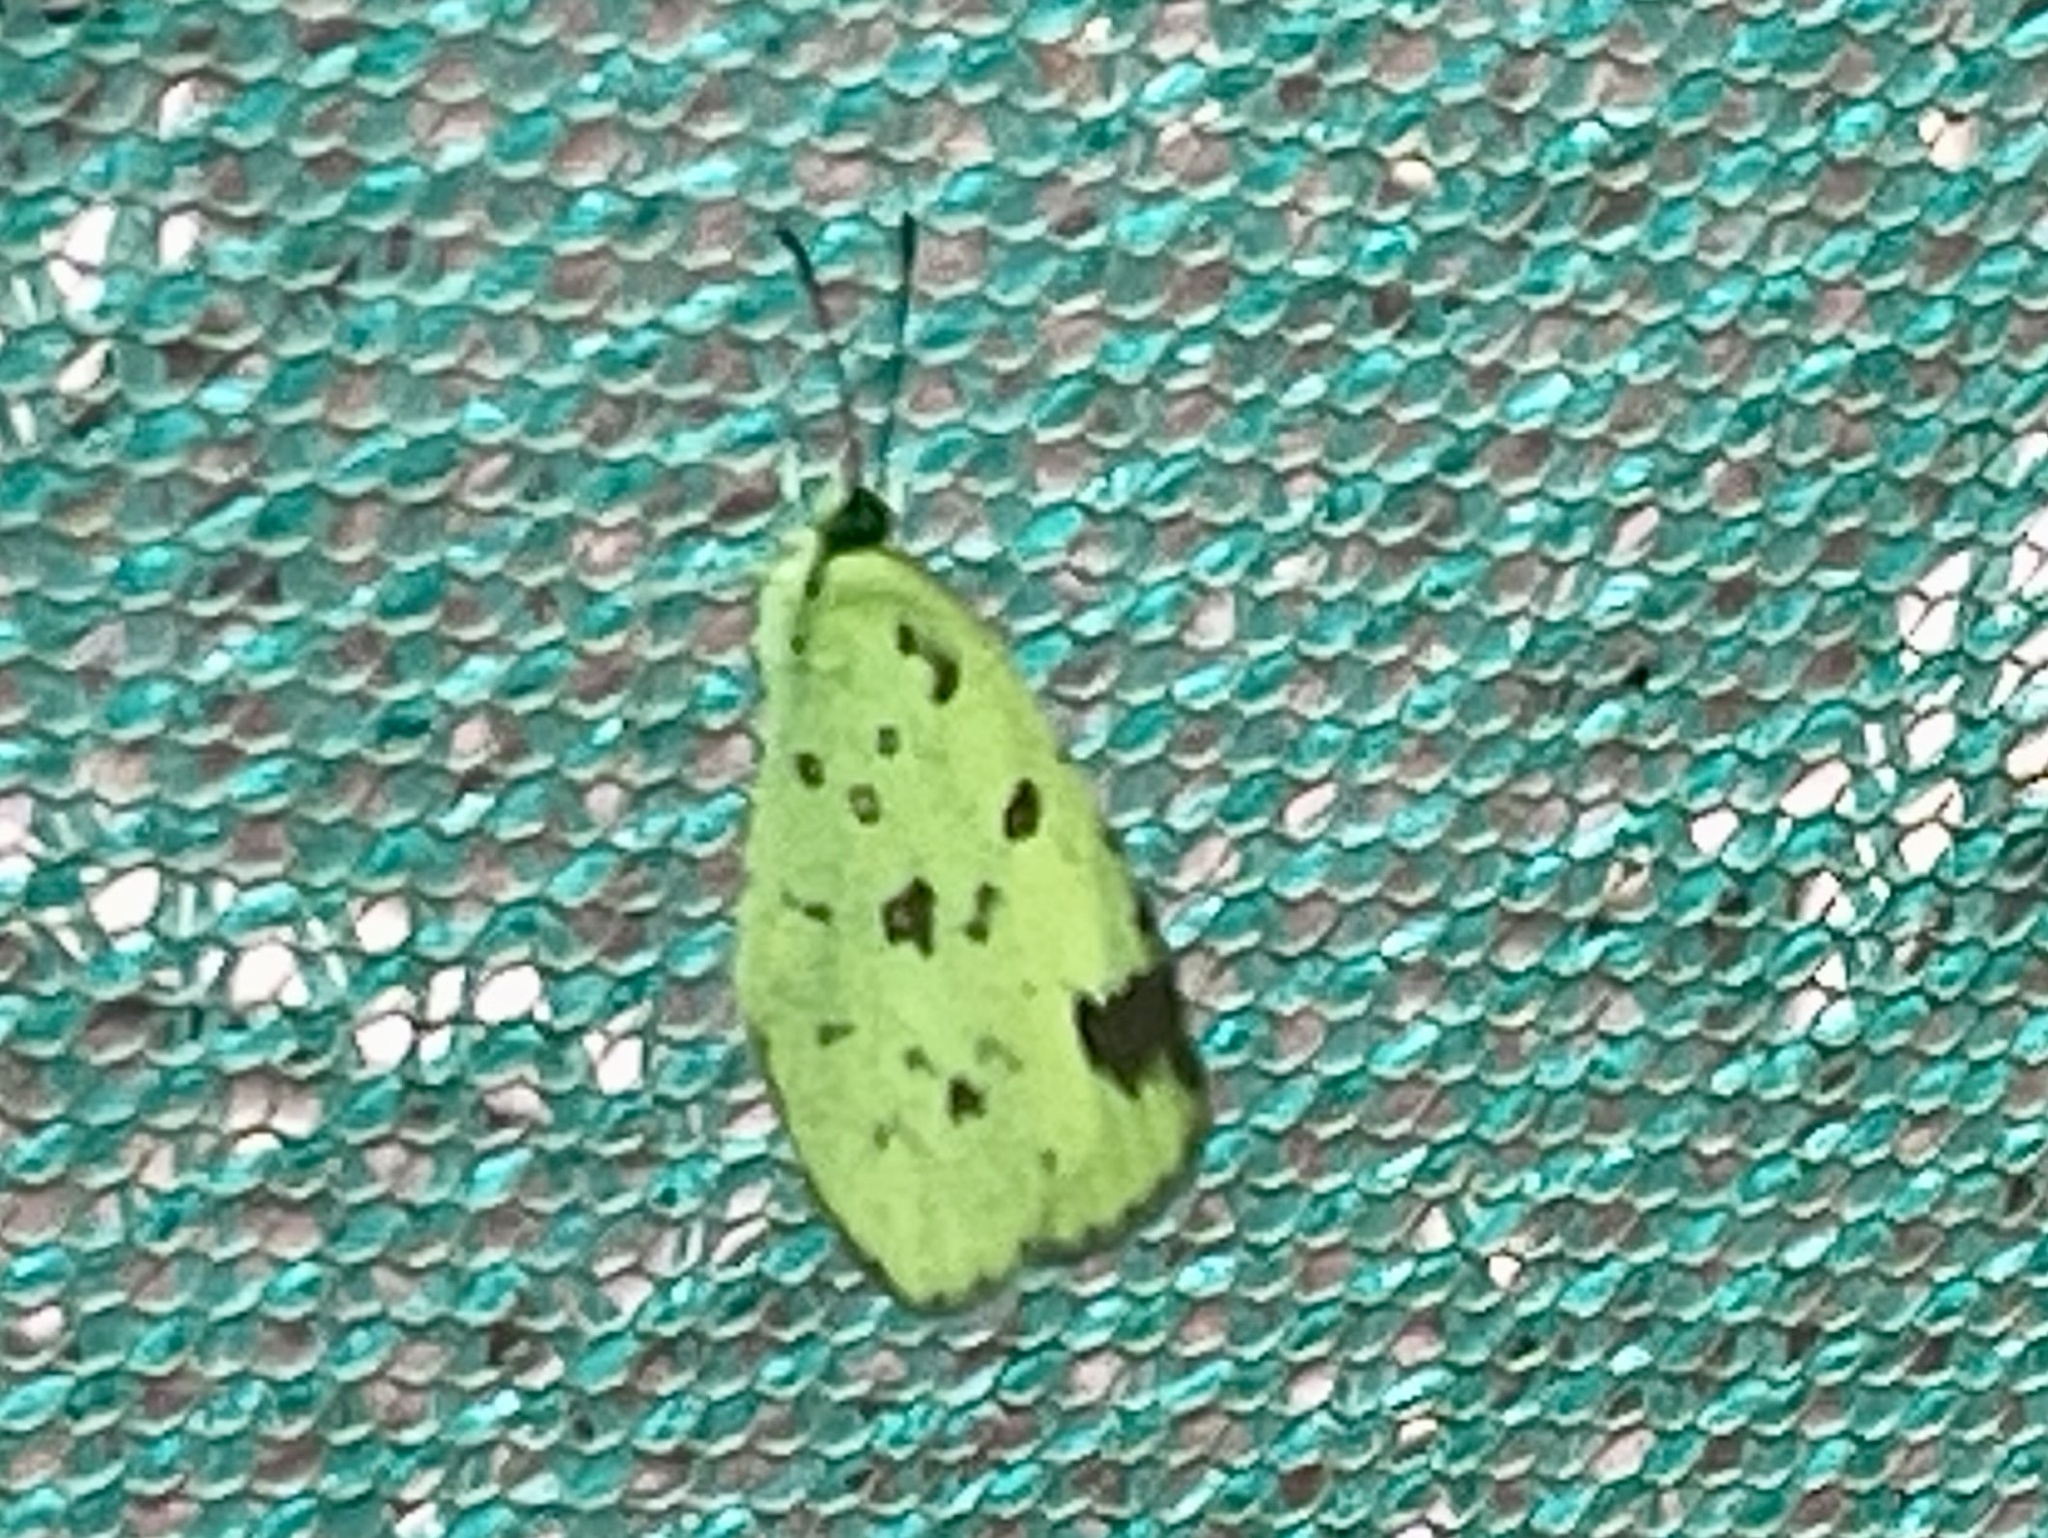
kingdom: Animalia
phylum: Arthropoda
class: Insecta
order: Lepidoptera
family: Pieridae
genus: Eurema
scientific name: Eurema hecabe
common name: Pale grass yellow
